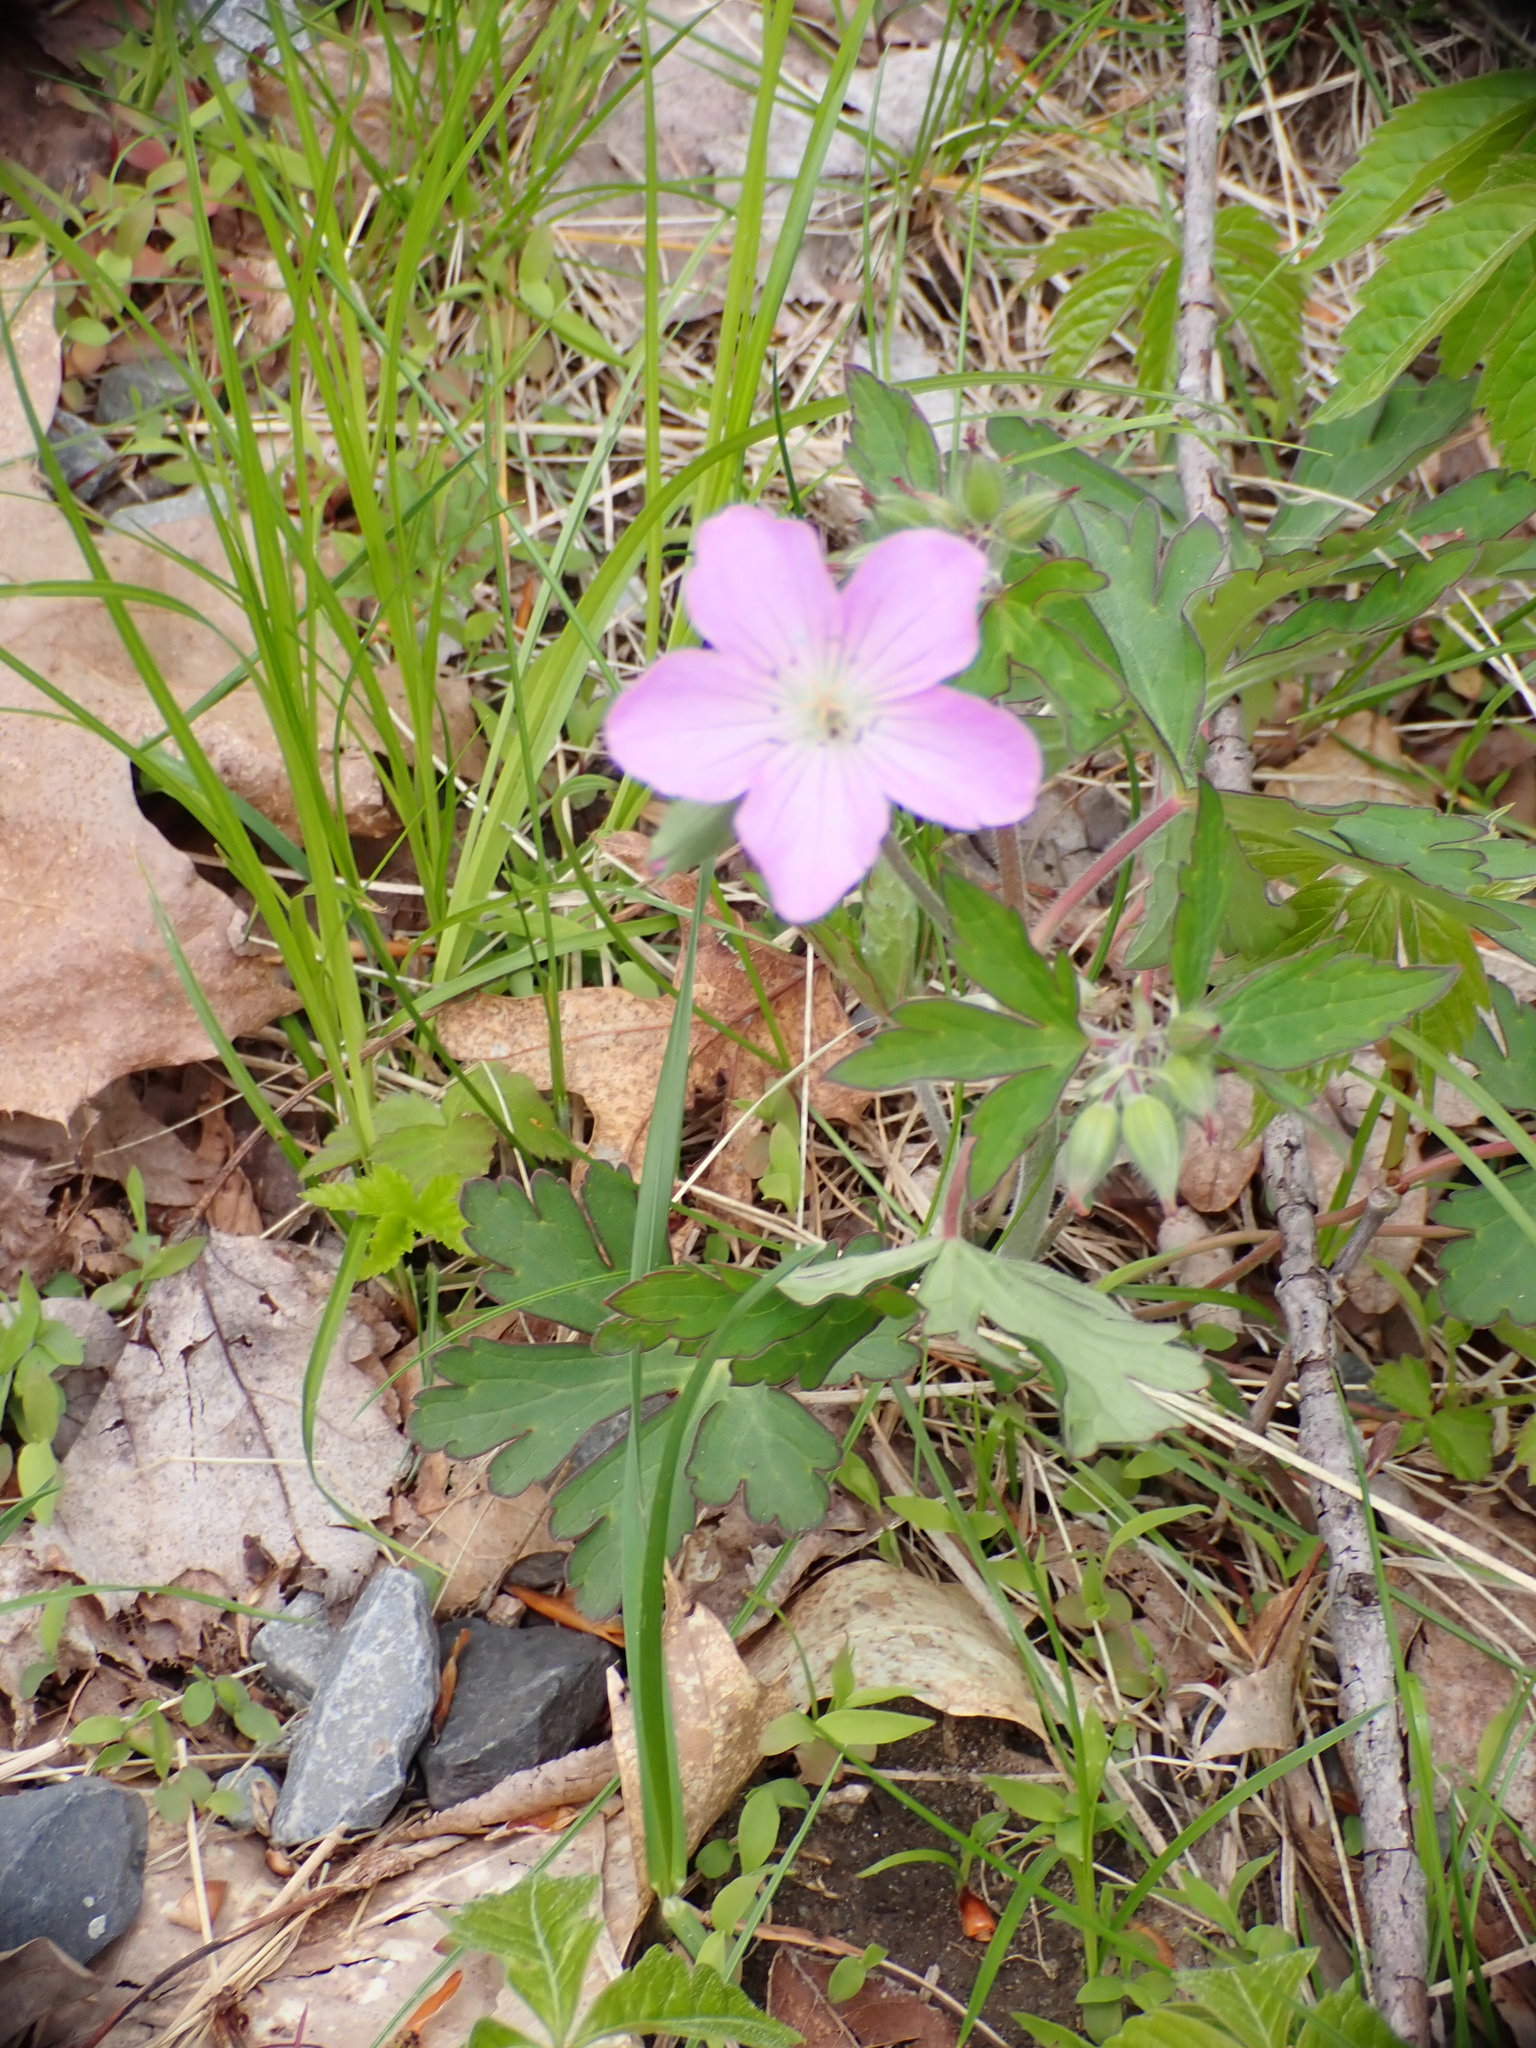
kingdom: Plantae
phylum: Tracheophyta
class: Magnoliopsida
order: Geraniales
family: Geraniaceae
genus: Geranium
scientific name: Geranium maculatum
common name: Spotted geranium
